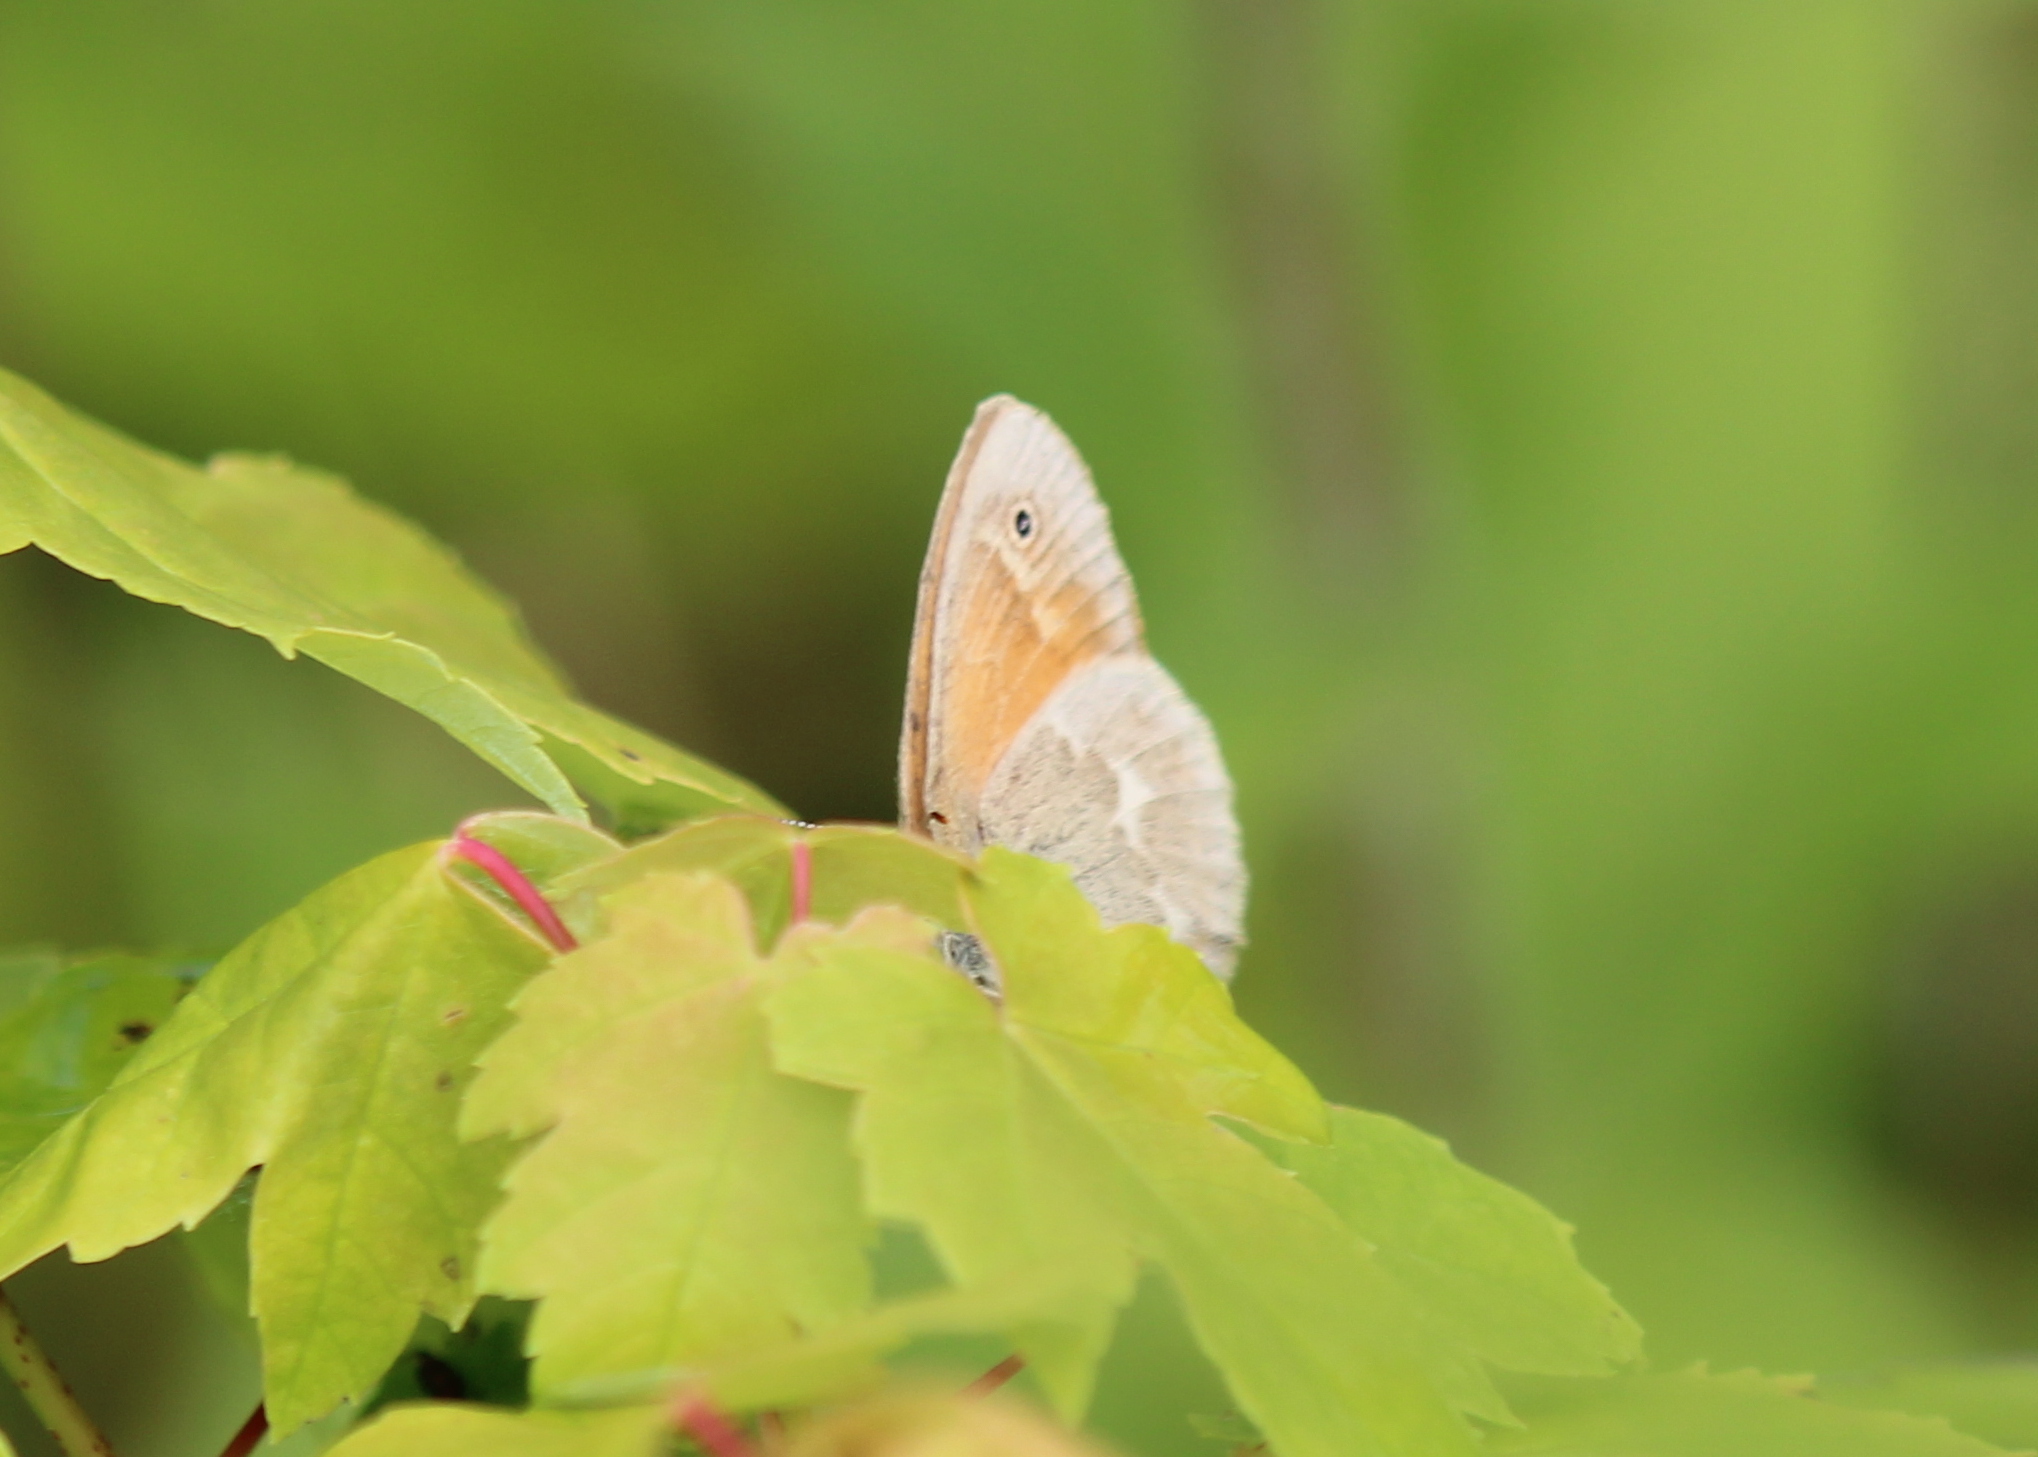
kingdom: Animalia
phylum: Arthropoda
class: Insecta
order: Lepidoptera
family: Nymphalidae
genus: Coenonympha
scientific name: Coenonympha california
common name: Common ringlet
